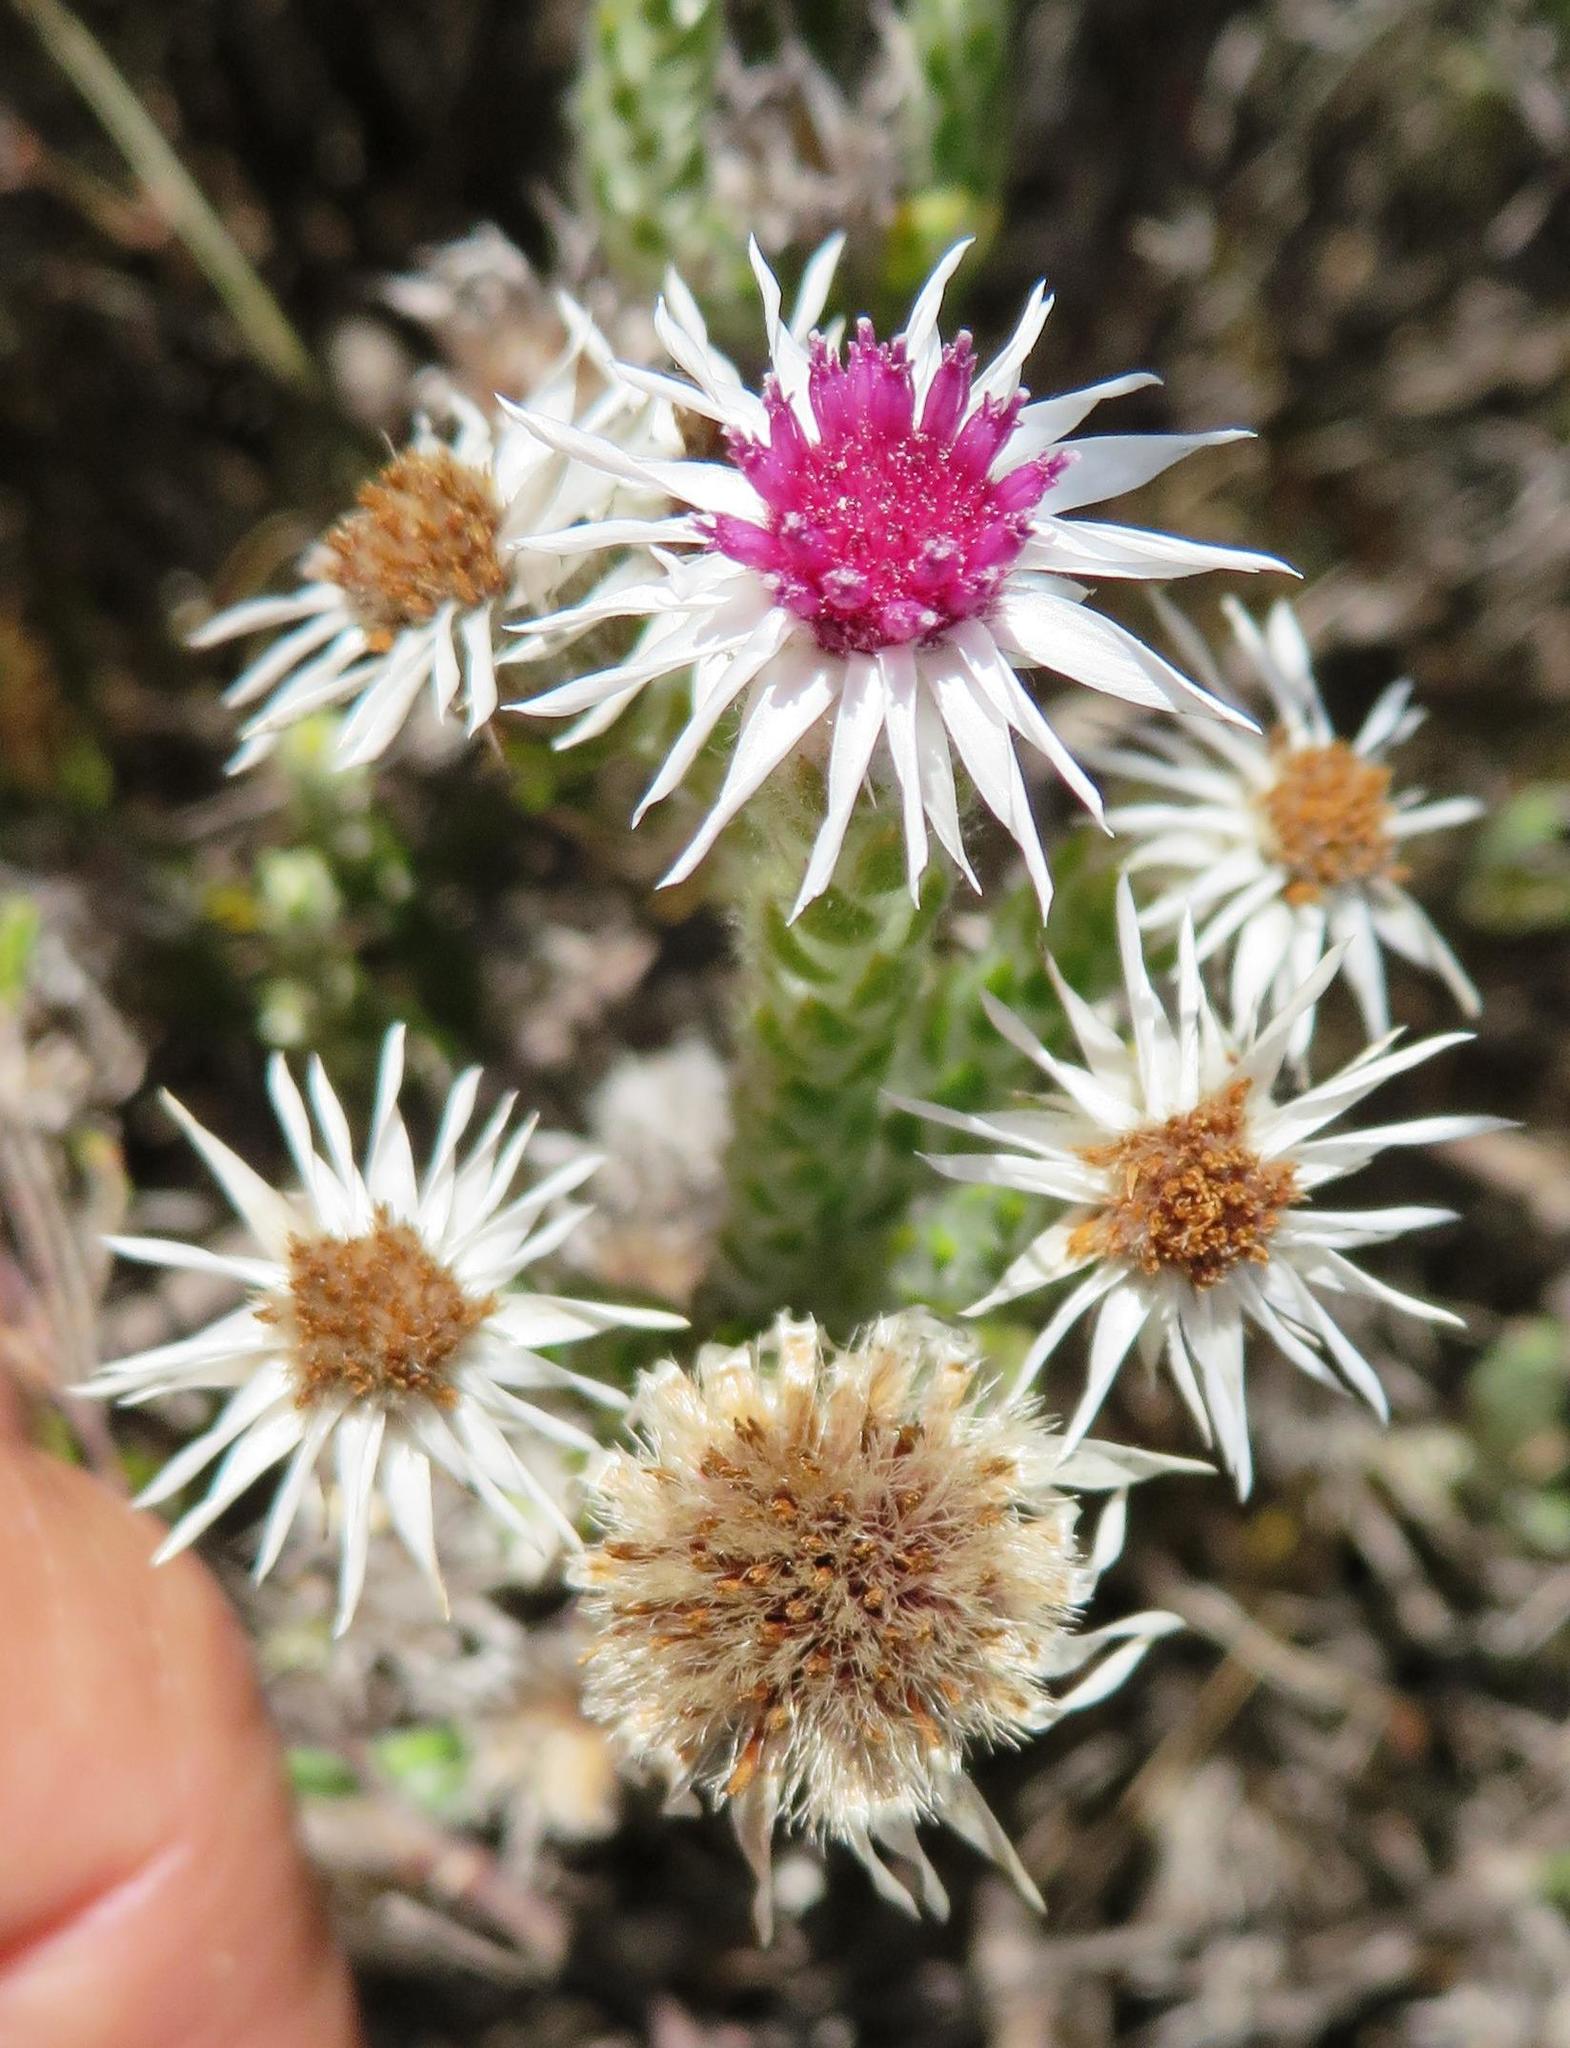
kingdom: Plantae
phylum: Tracheophyta
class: Magnoliopsida
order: Asterales
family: Asteraceae
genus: Lachnospermum
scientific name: Lachnospermum imbricatum
